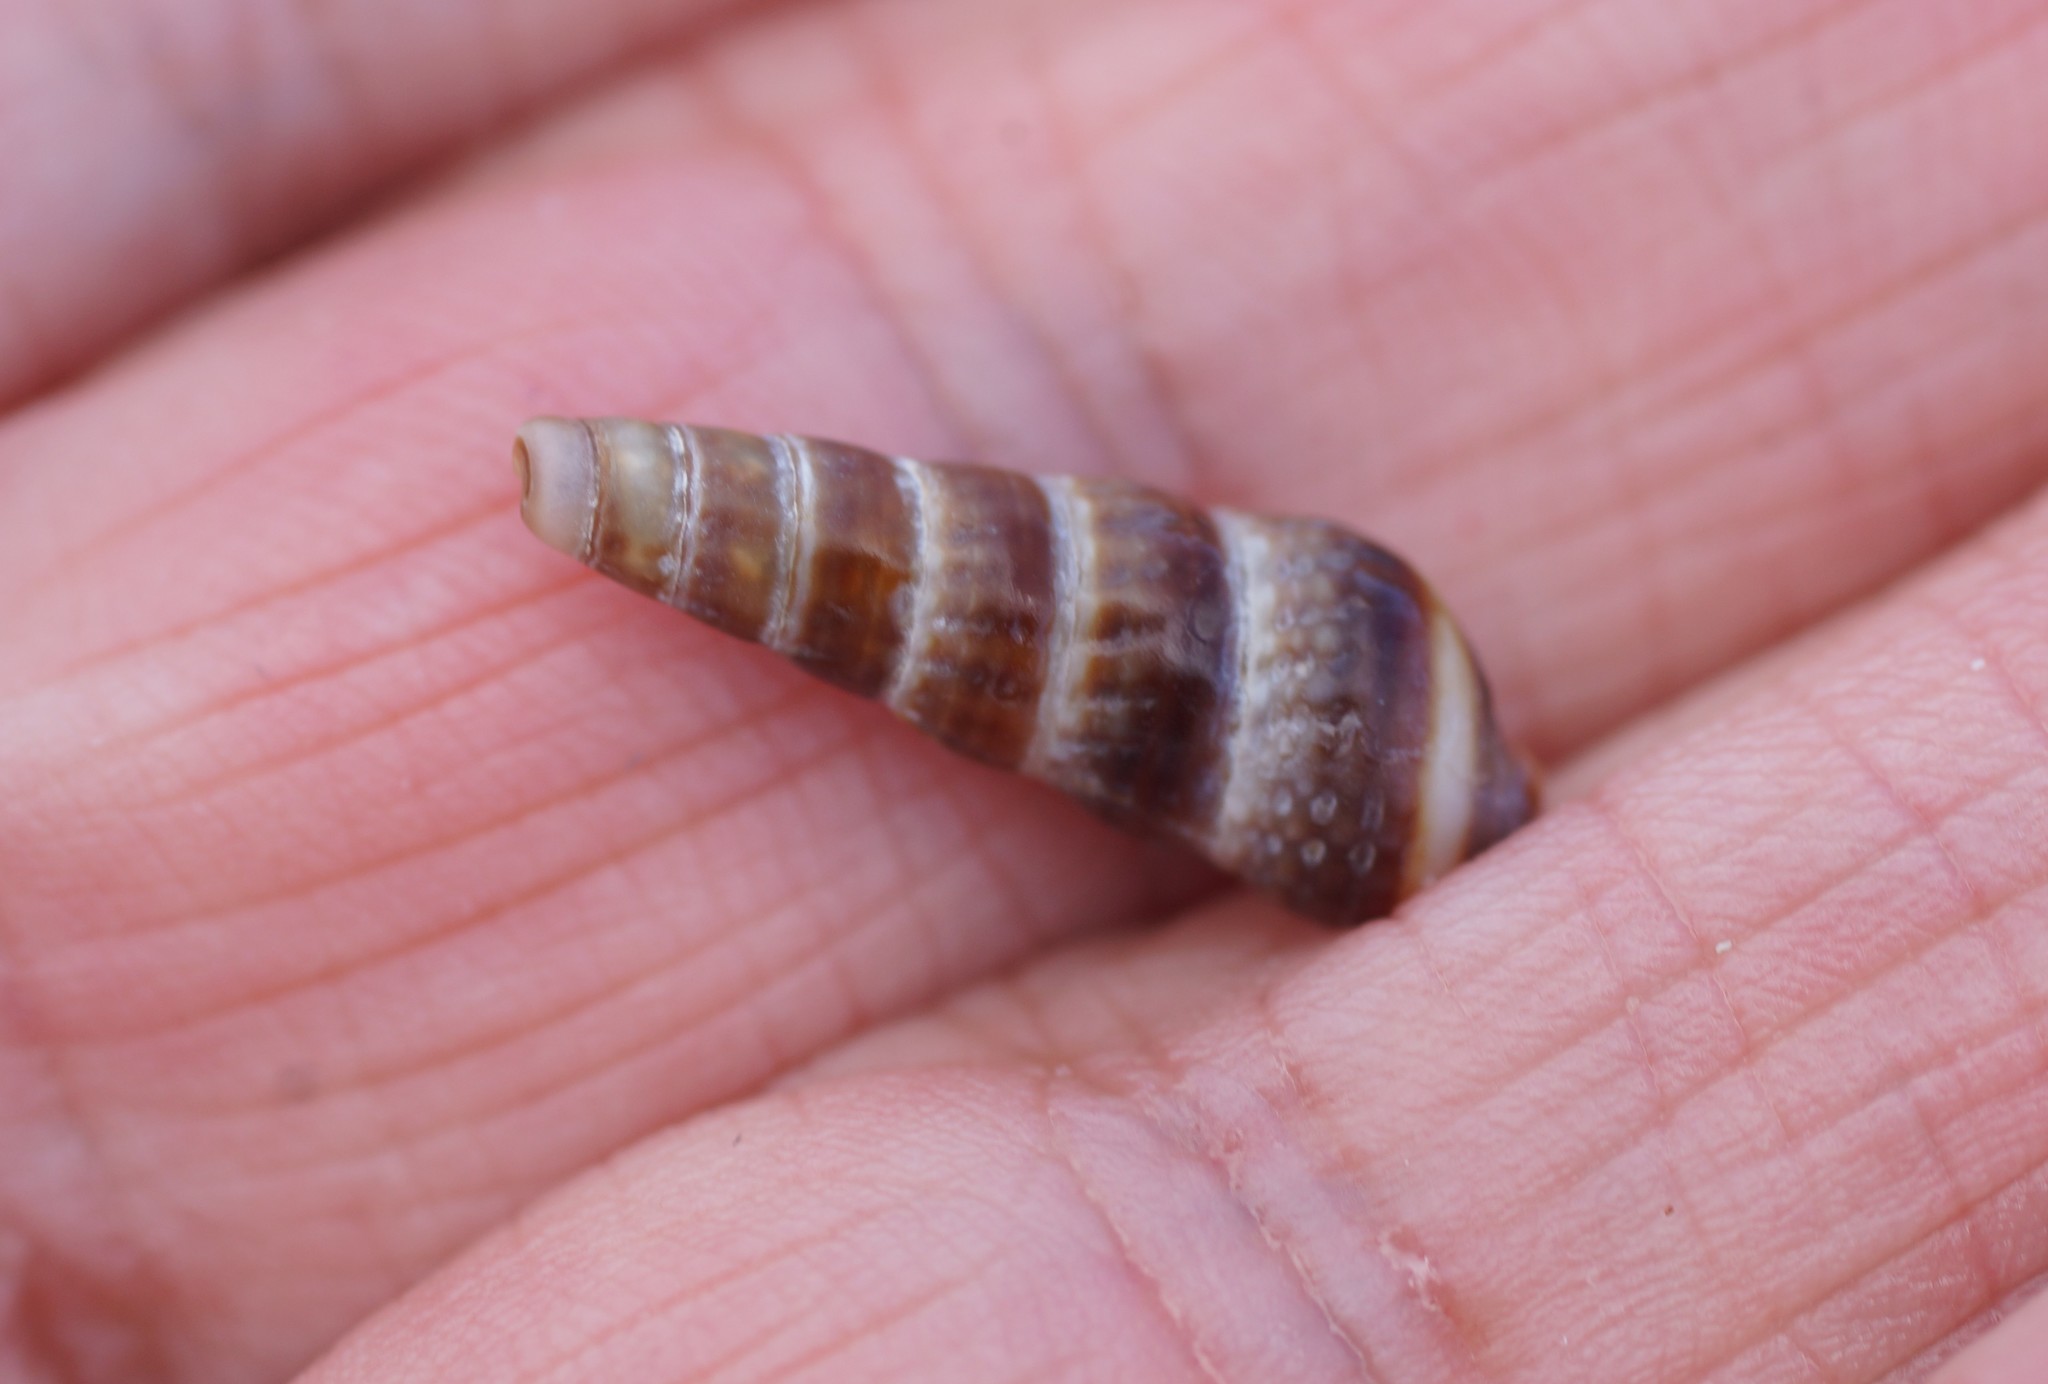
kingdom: Animalia
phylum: Mollusca
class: Gastropoda
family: Batillariidae
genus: Zeacumantus
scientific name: Zeacumantus diemenensis
